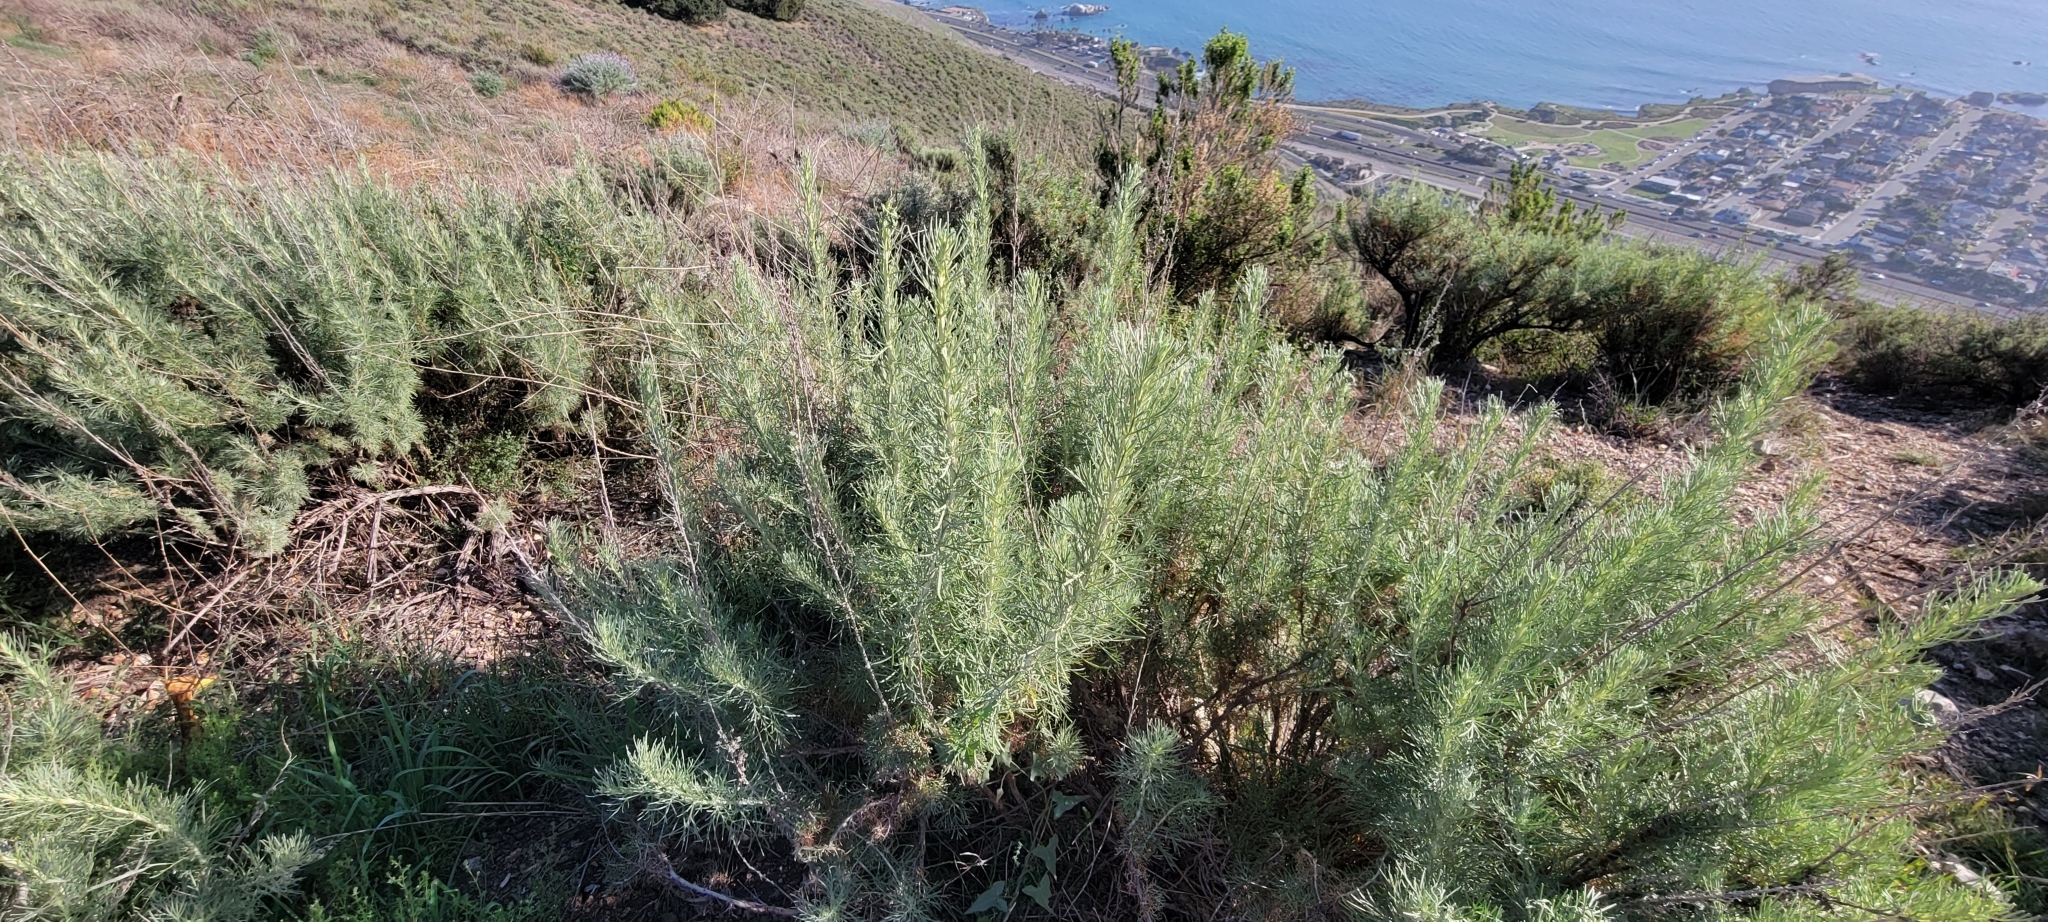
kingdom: Plantae
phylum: Tracheophyta
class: Magnoliopsida
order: Asterales
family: Asteraceae
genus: Artemisia
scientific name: Artemisia californica
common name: California sagebrush
